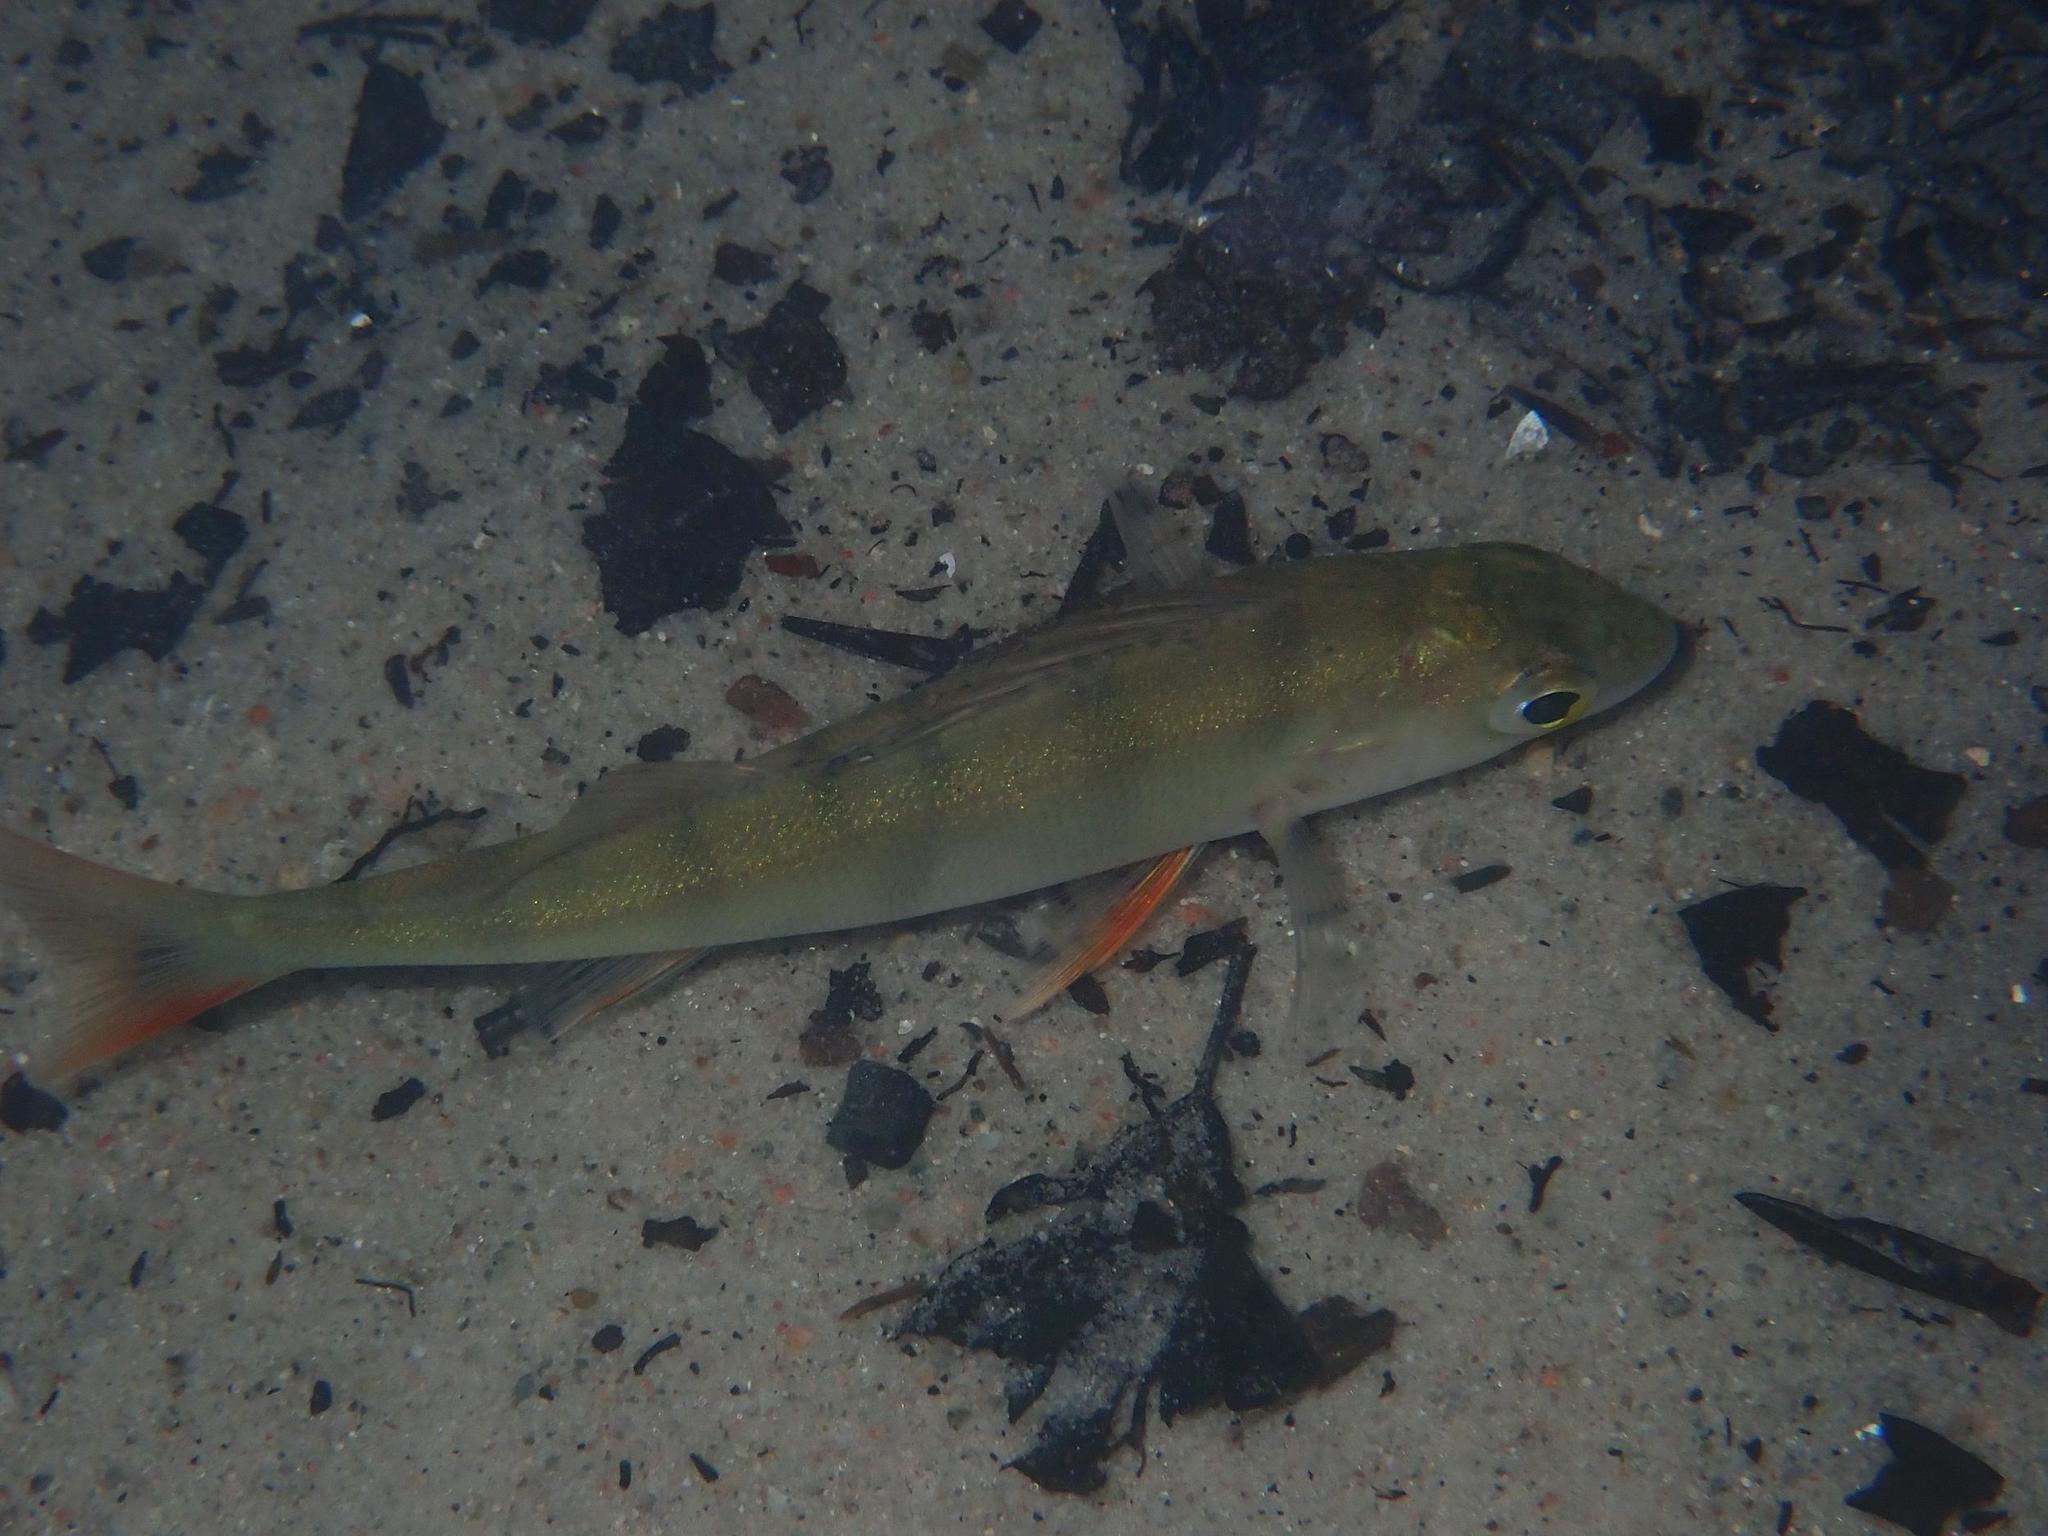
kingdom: Animalia
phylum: Chordata
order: Perciformes
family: Percidae
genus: Perca
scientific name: Perca fluviatilis
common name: Perch
